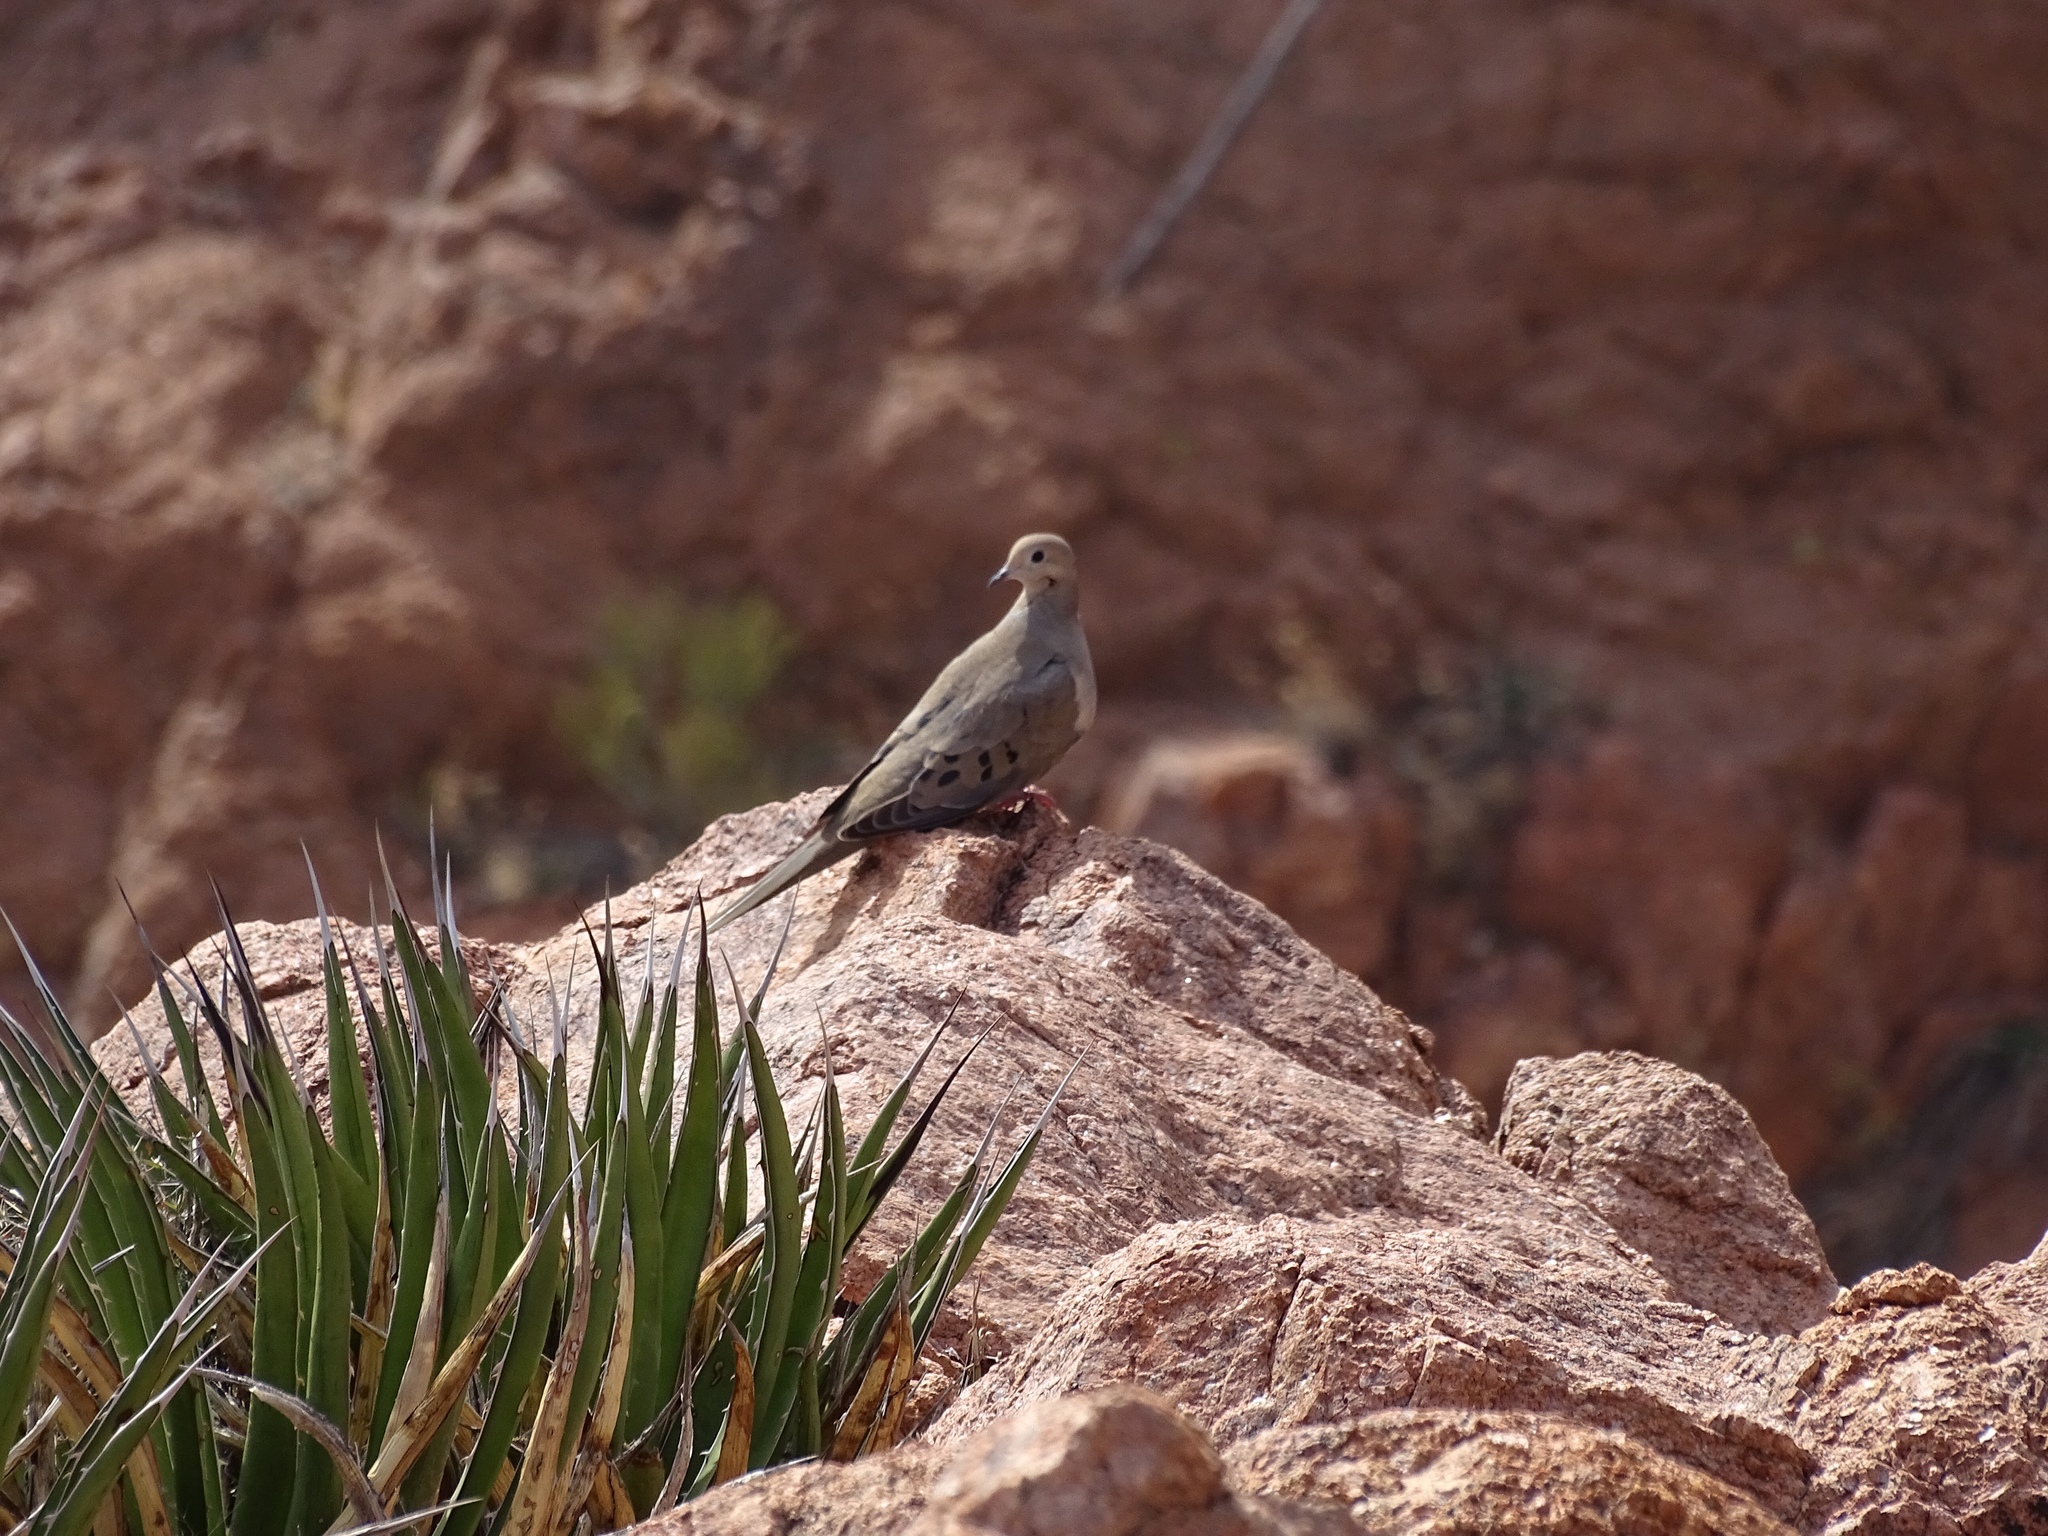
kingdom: Animalia
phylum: Chordata
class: Aves
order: Columbiformes
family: Columbidae
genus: Zenaida
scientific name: Zenaida macroura
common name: Mourning dove
